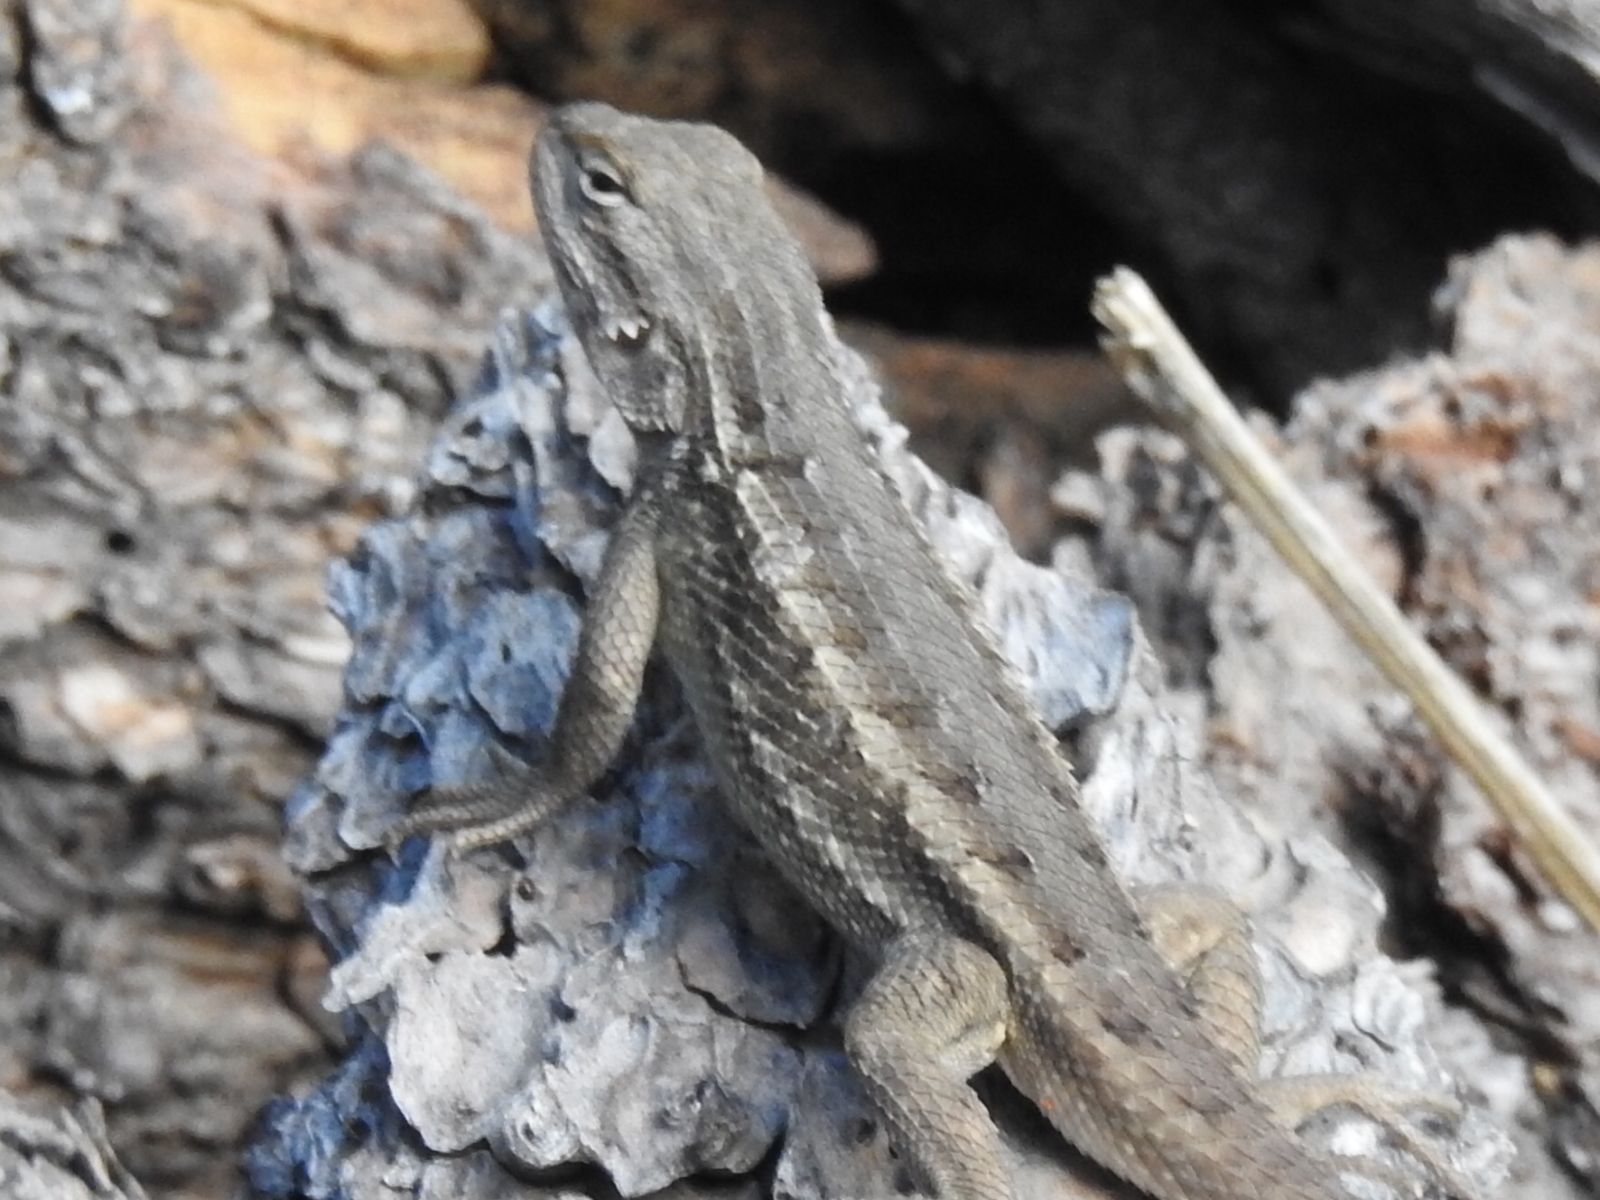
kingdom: Animalia
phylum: Chordata
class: Squamata
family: Phrynosomatidae
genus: Sceloporus
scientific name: Sceloporus cowlesi
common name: White sands prairie lizard
